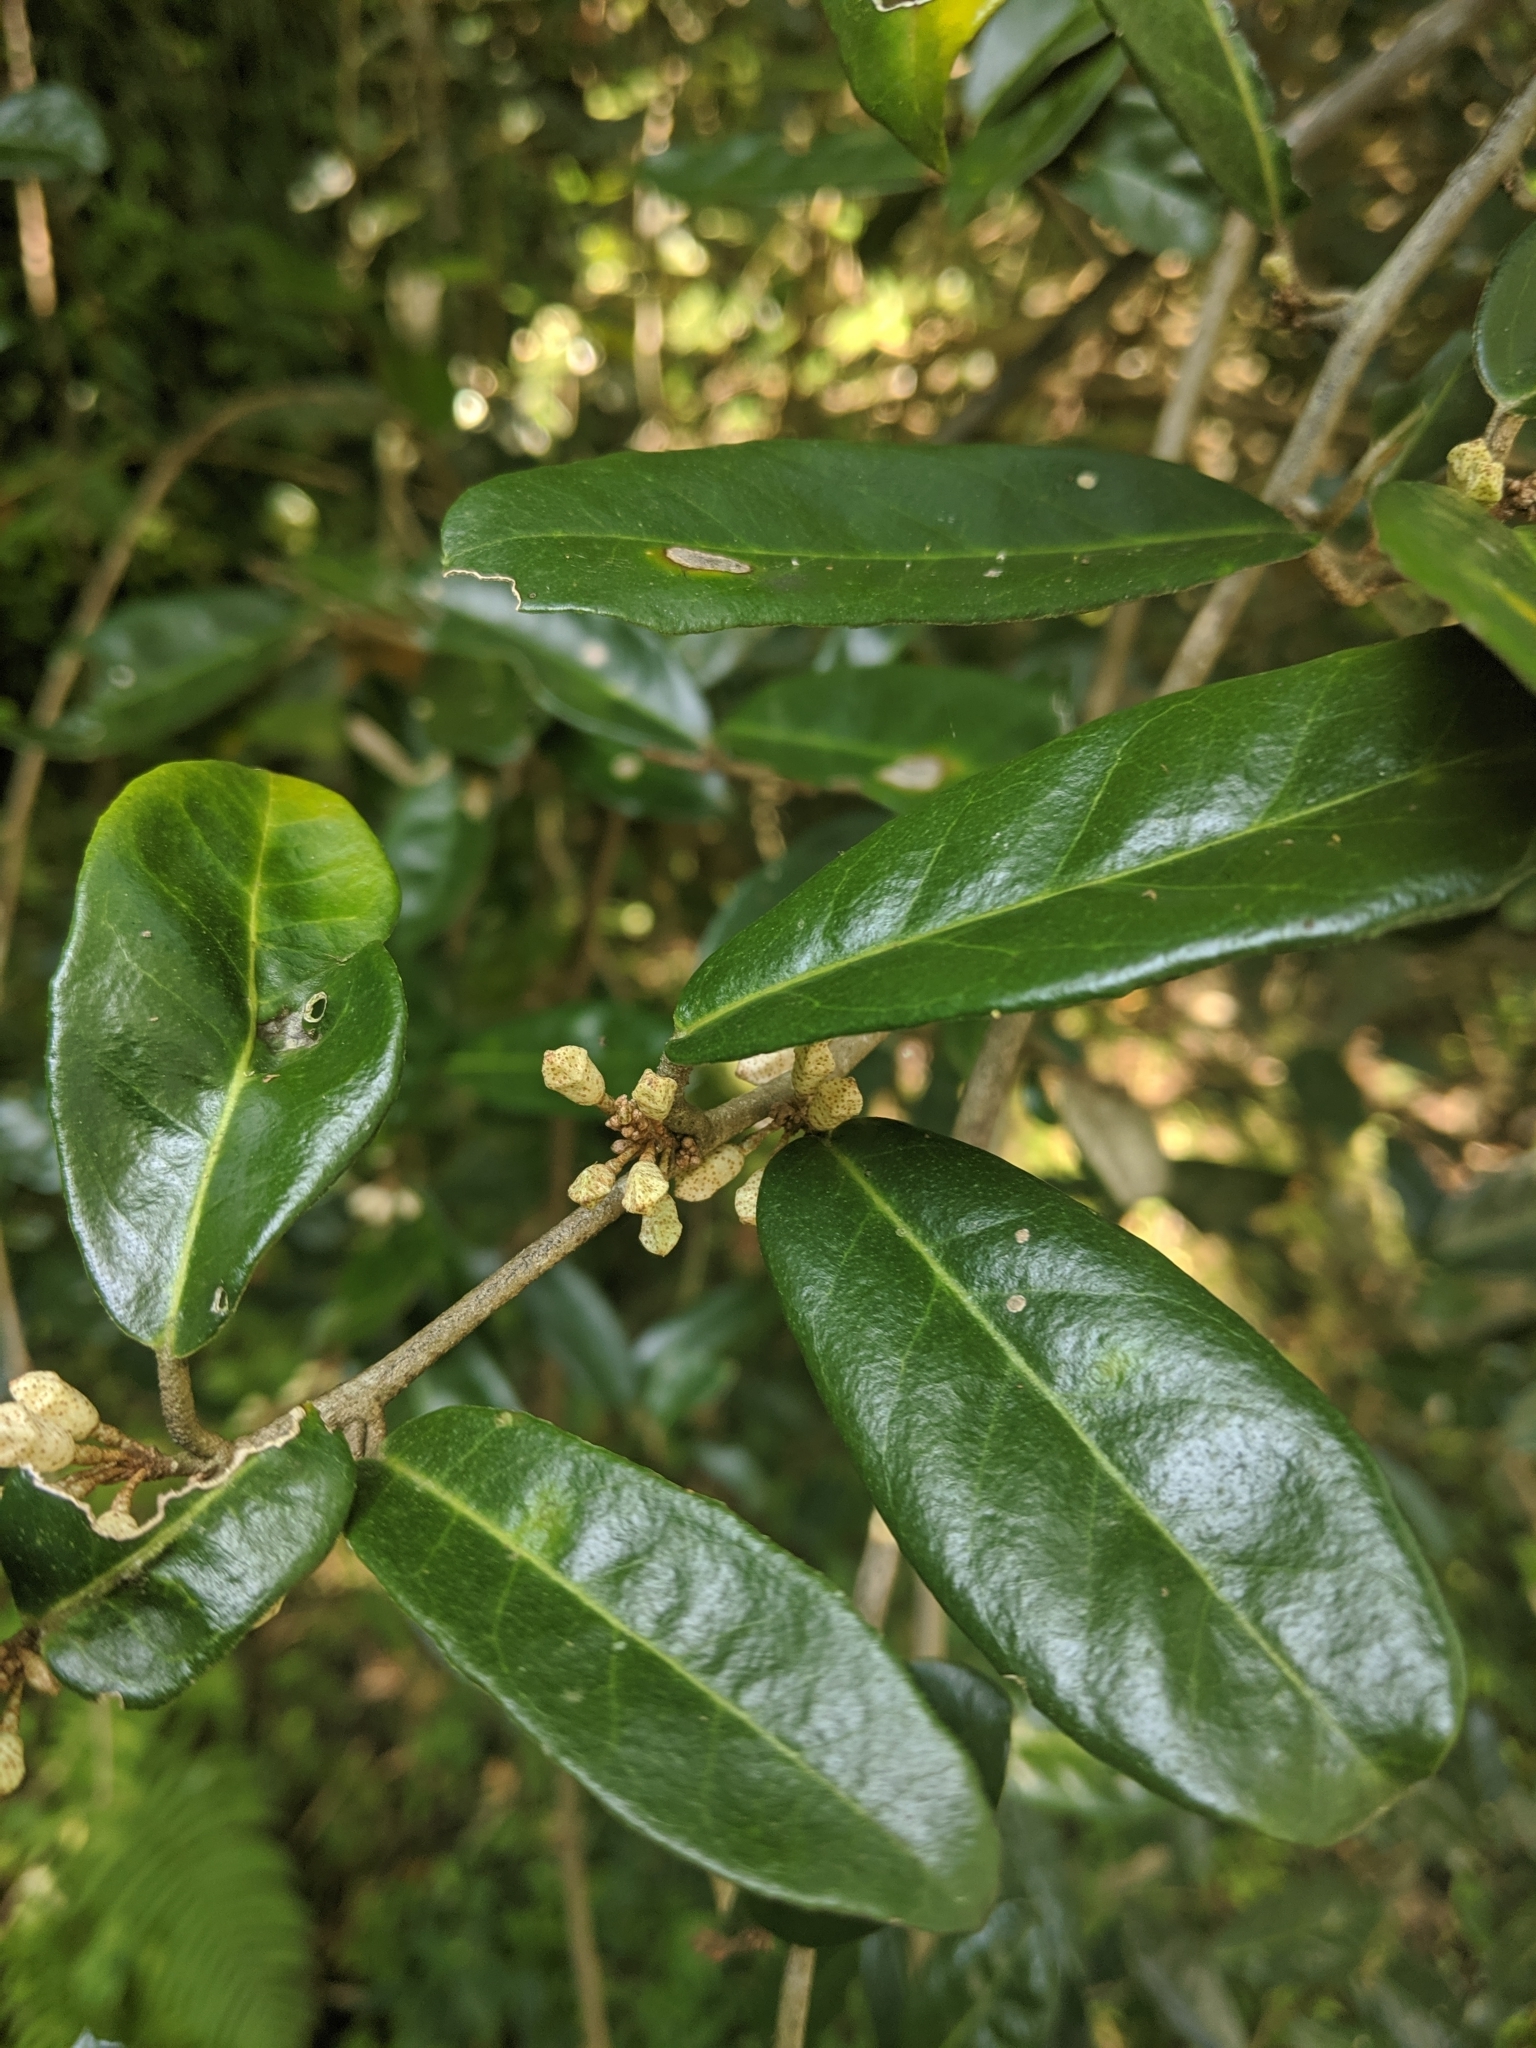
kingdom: Plantae
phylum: Tracheophyta
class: Magnoliopsida
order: Rosales
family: Elaeagnaceae
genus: Elaeagnus
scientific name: Elaeagnus formosana
